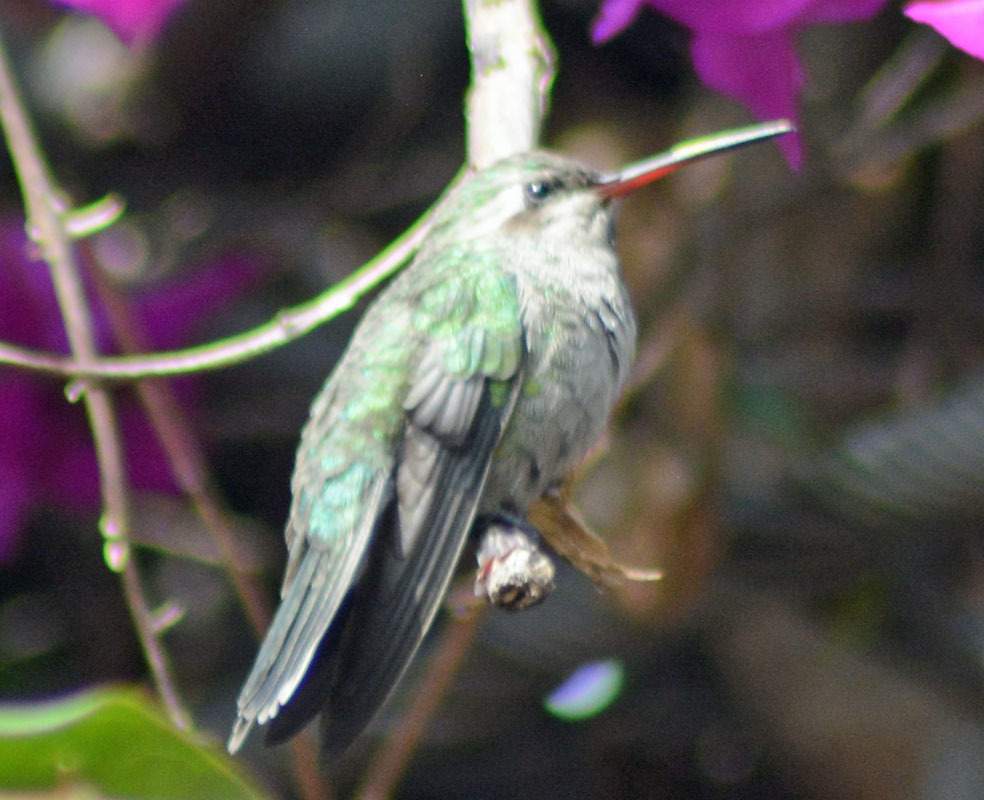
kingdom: Animalia
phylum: Chordata
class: Aves
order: Apodiformes
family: Trochilidae
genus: Cynanthus
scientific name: Cynanthus latirostris
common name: Broad-billed hummingbird
